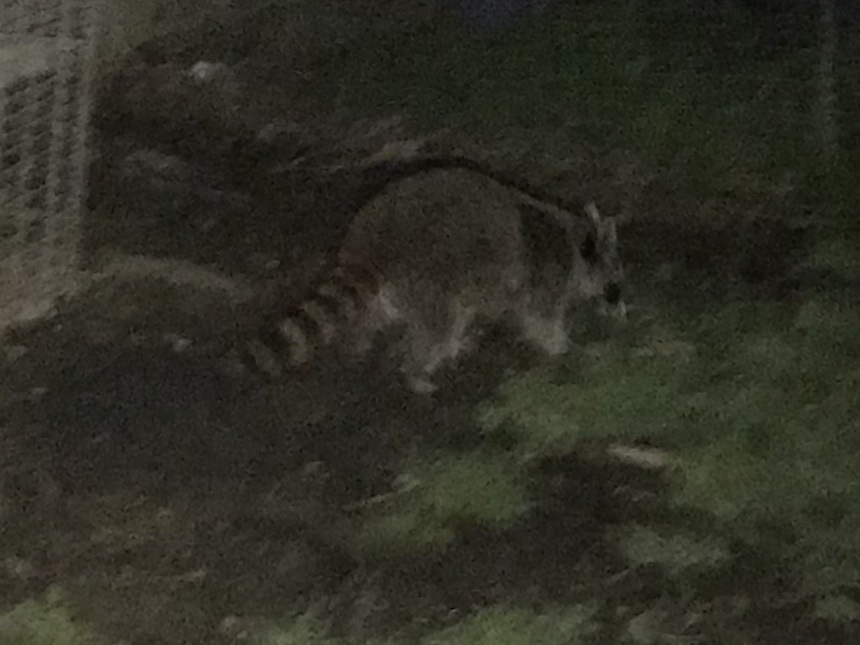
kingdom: Animalia
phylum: Chordata
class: Mammalia
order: Carnivora
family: Procyonidae
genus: Procyon
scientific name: Procyon lotor
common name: Raccoon
